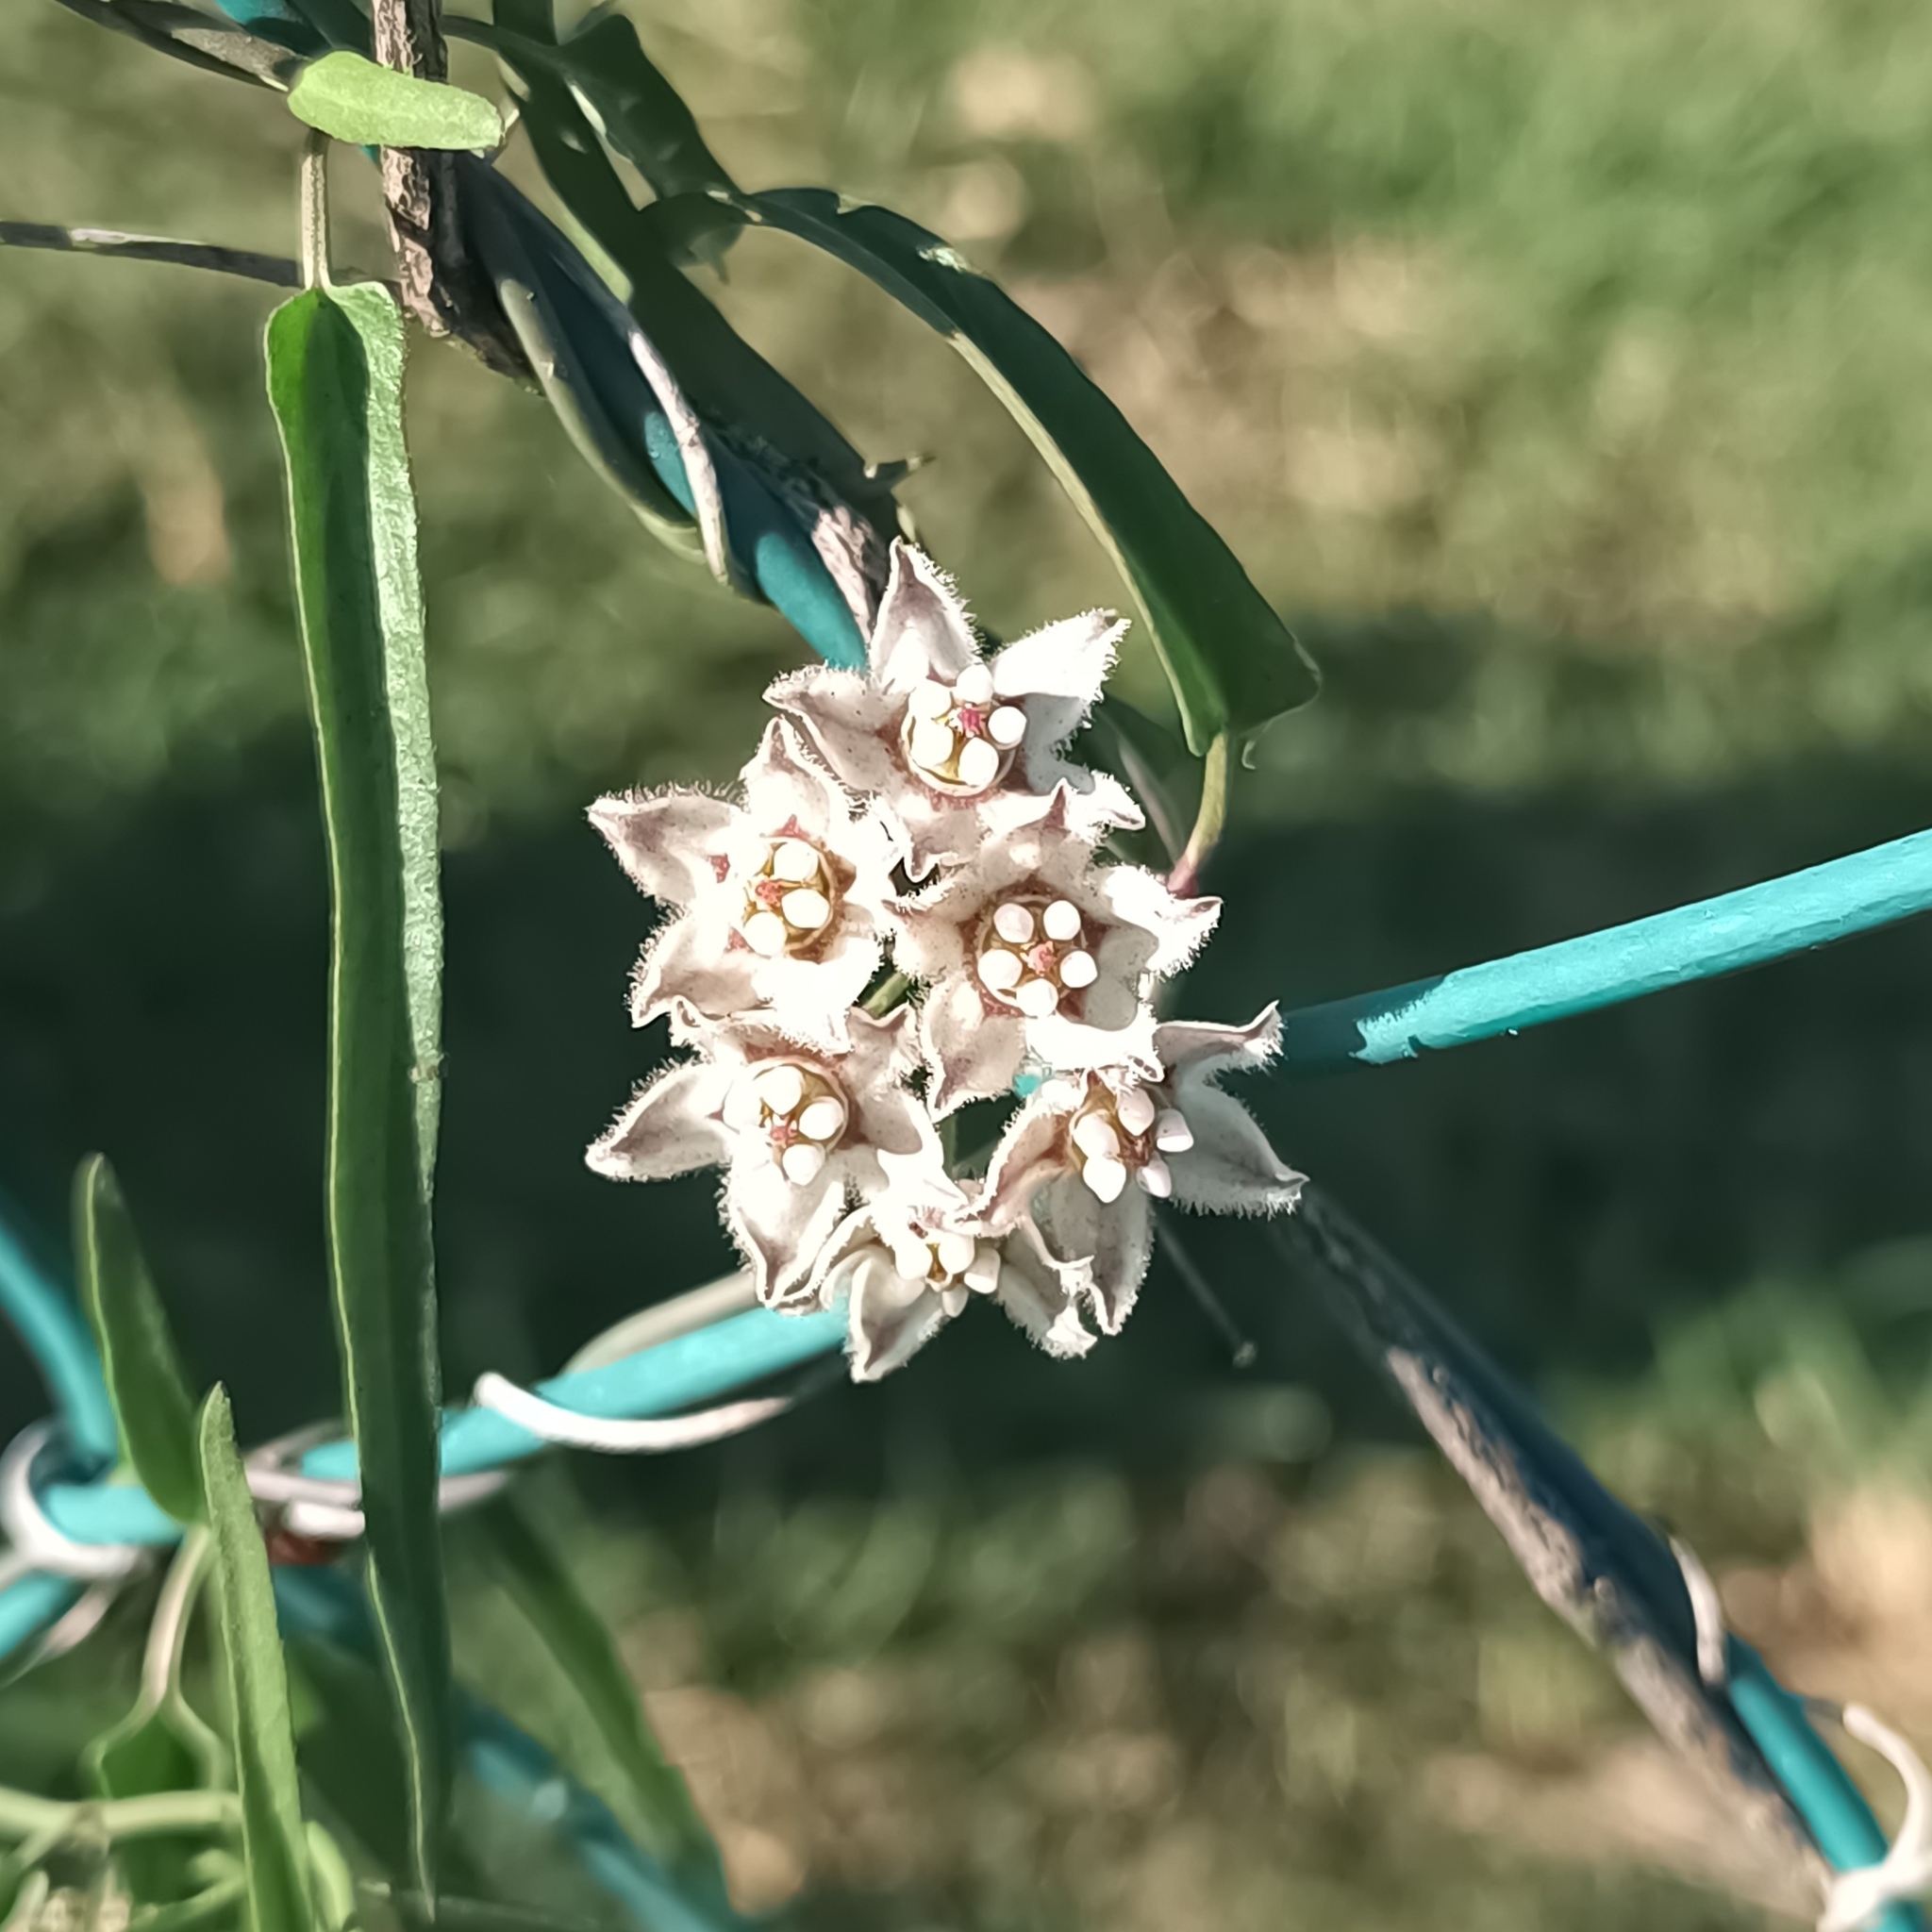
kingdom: Plantae
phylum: Tracheophyta
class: Magnoliopsida
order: Gentianales
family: Apocynaceae
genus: Funastrum
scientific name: Funastrum heterophyllum
